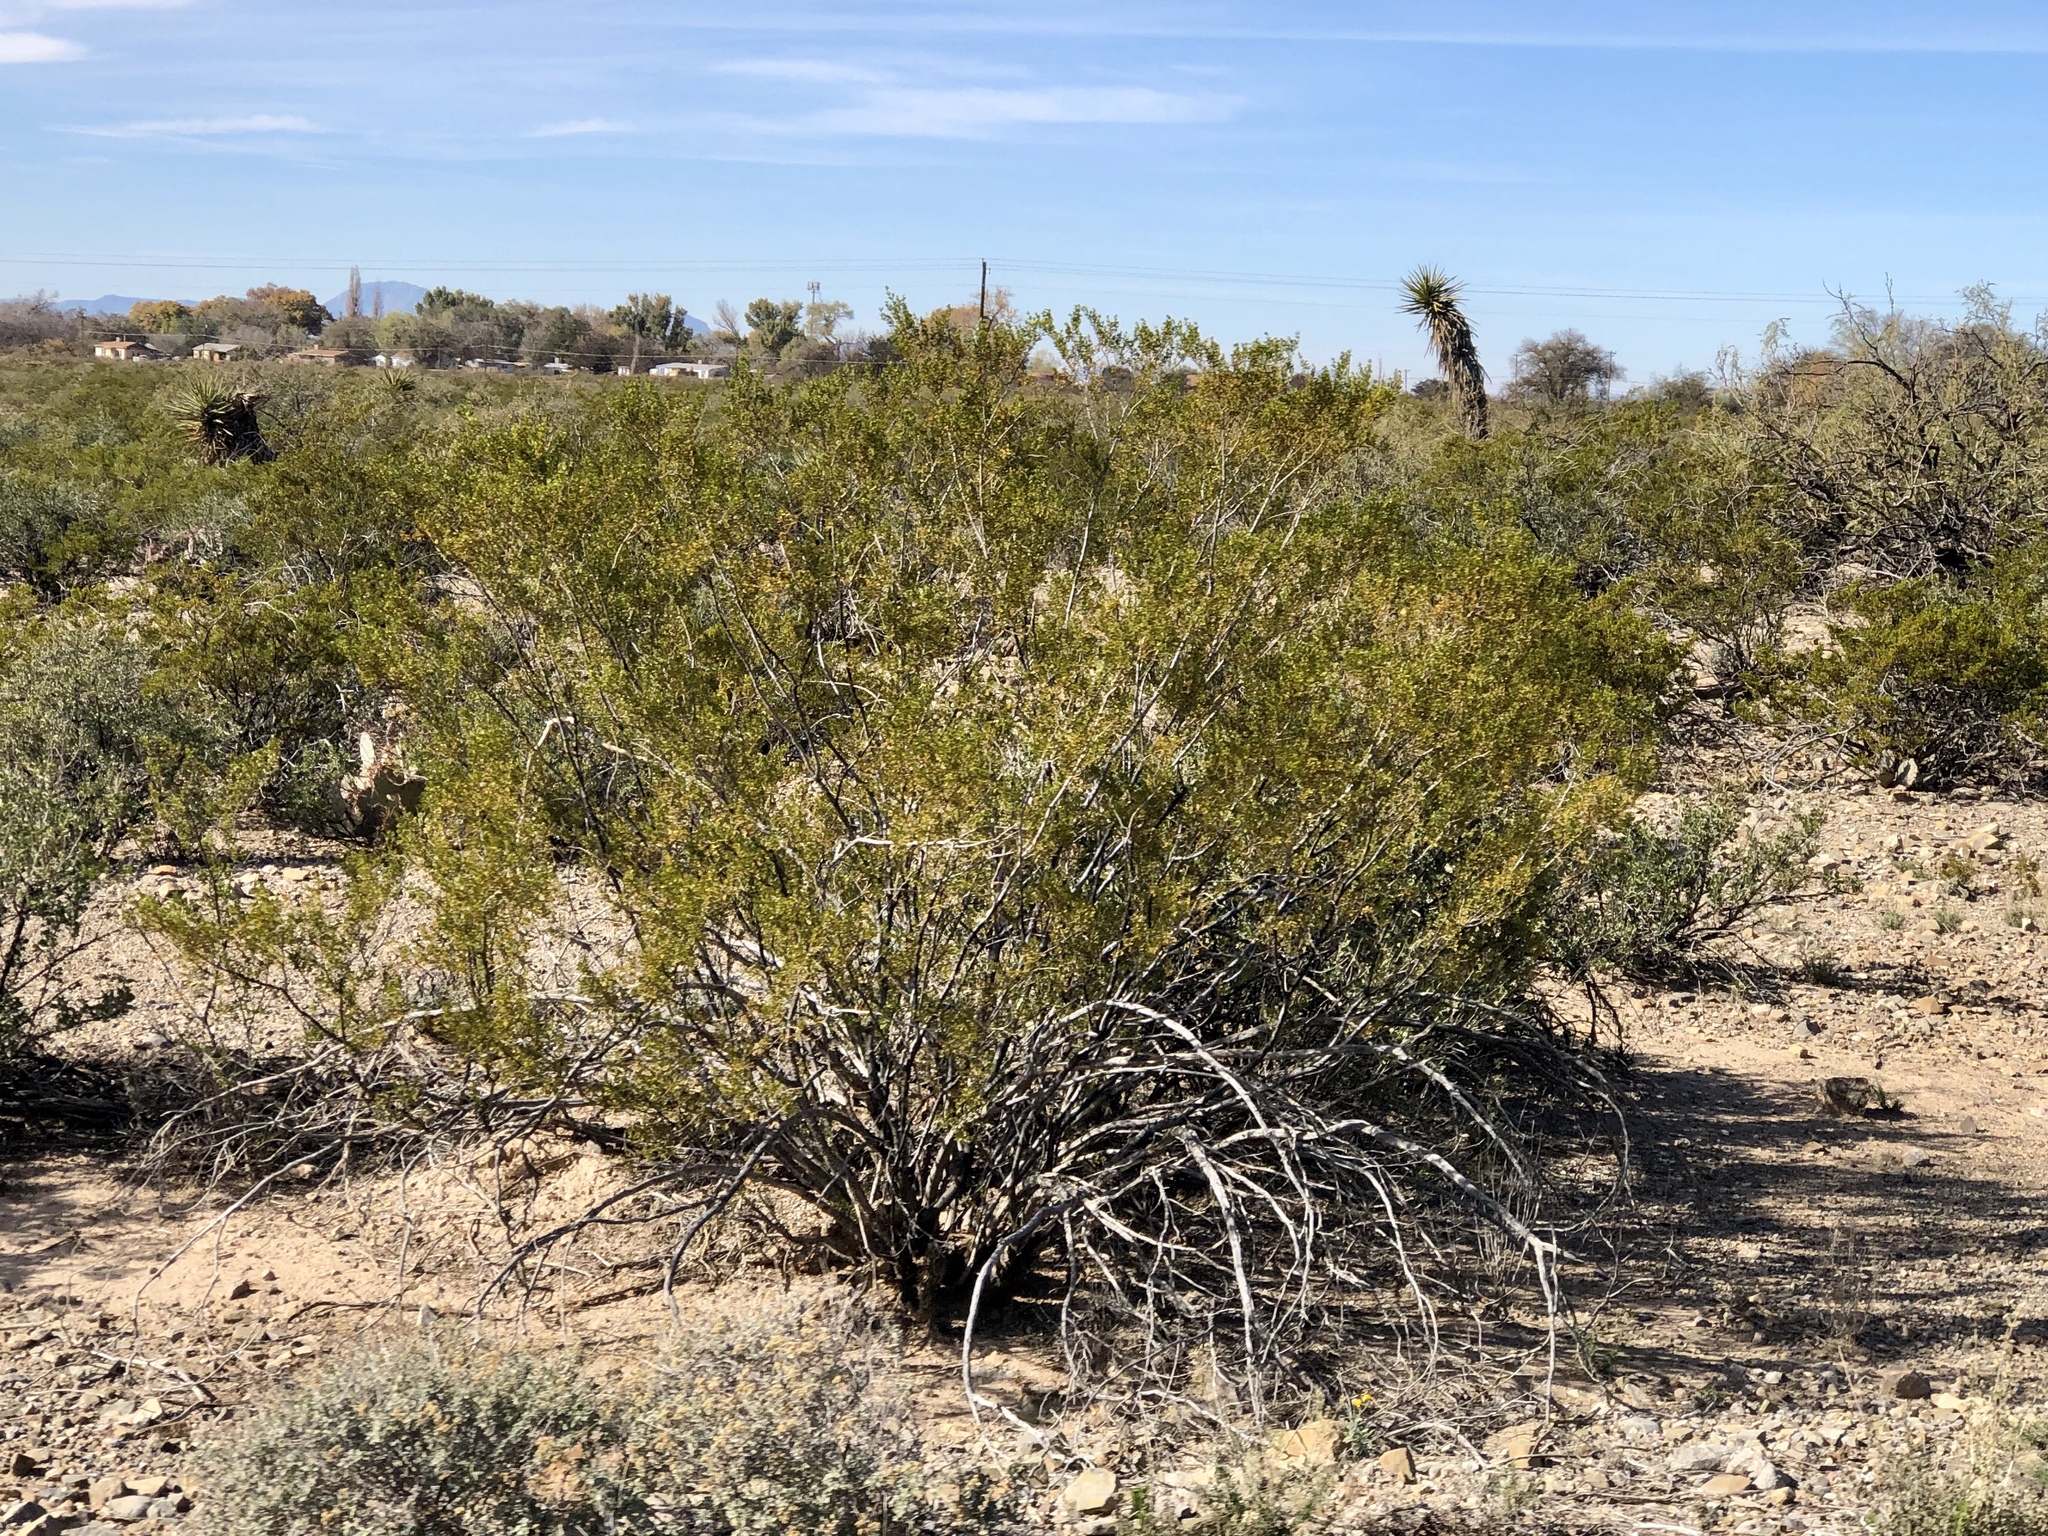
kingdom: Plantae
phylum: Tracheophyta
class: Magnoliopsida
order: Zygophyllales
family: Zygophyllaceae
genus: Larrea
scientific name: Larrea tridentata
